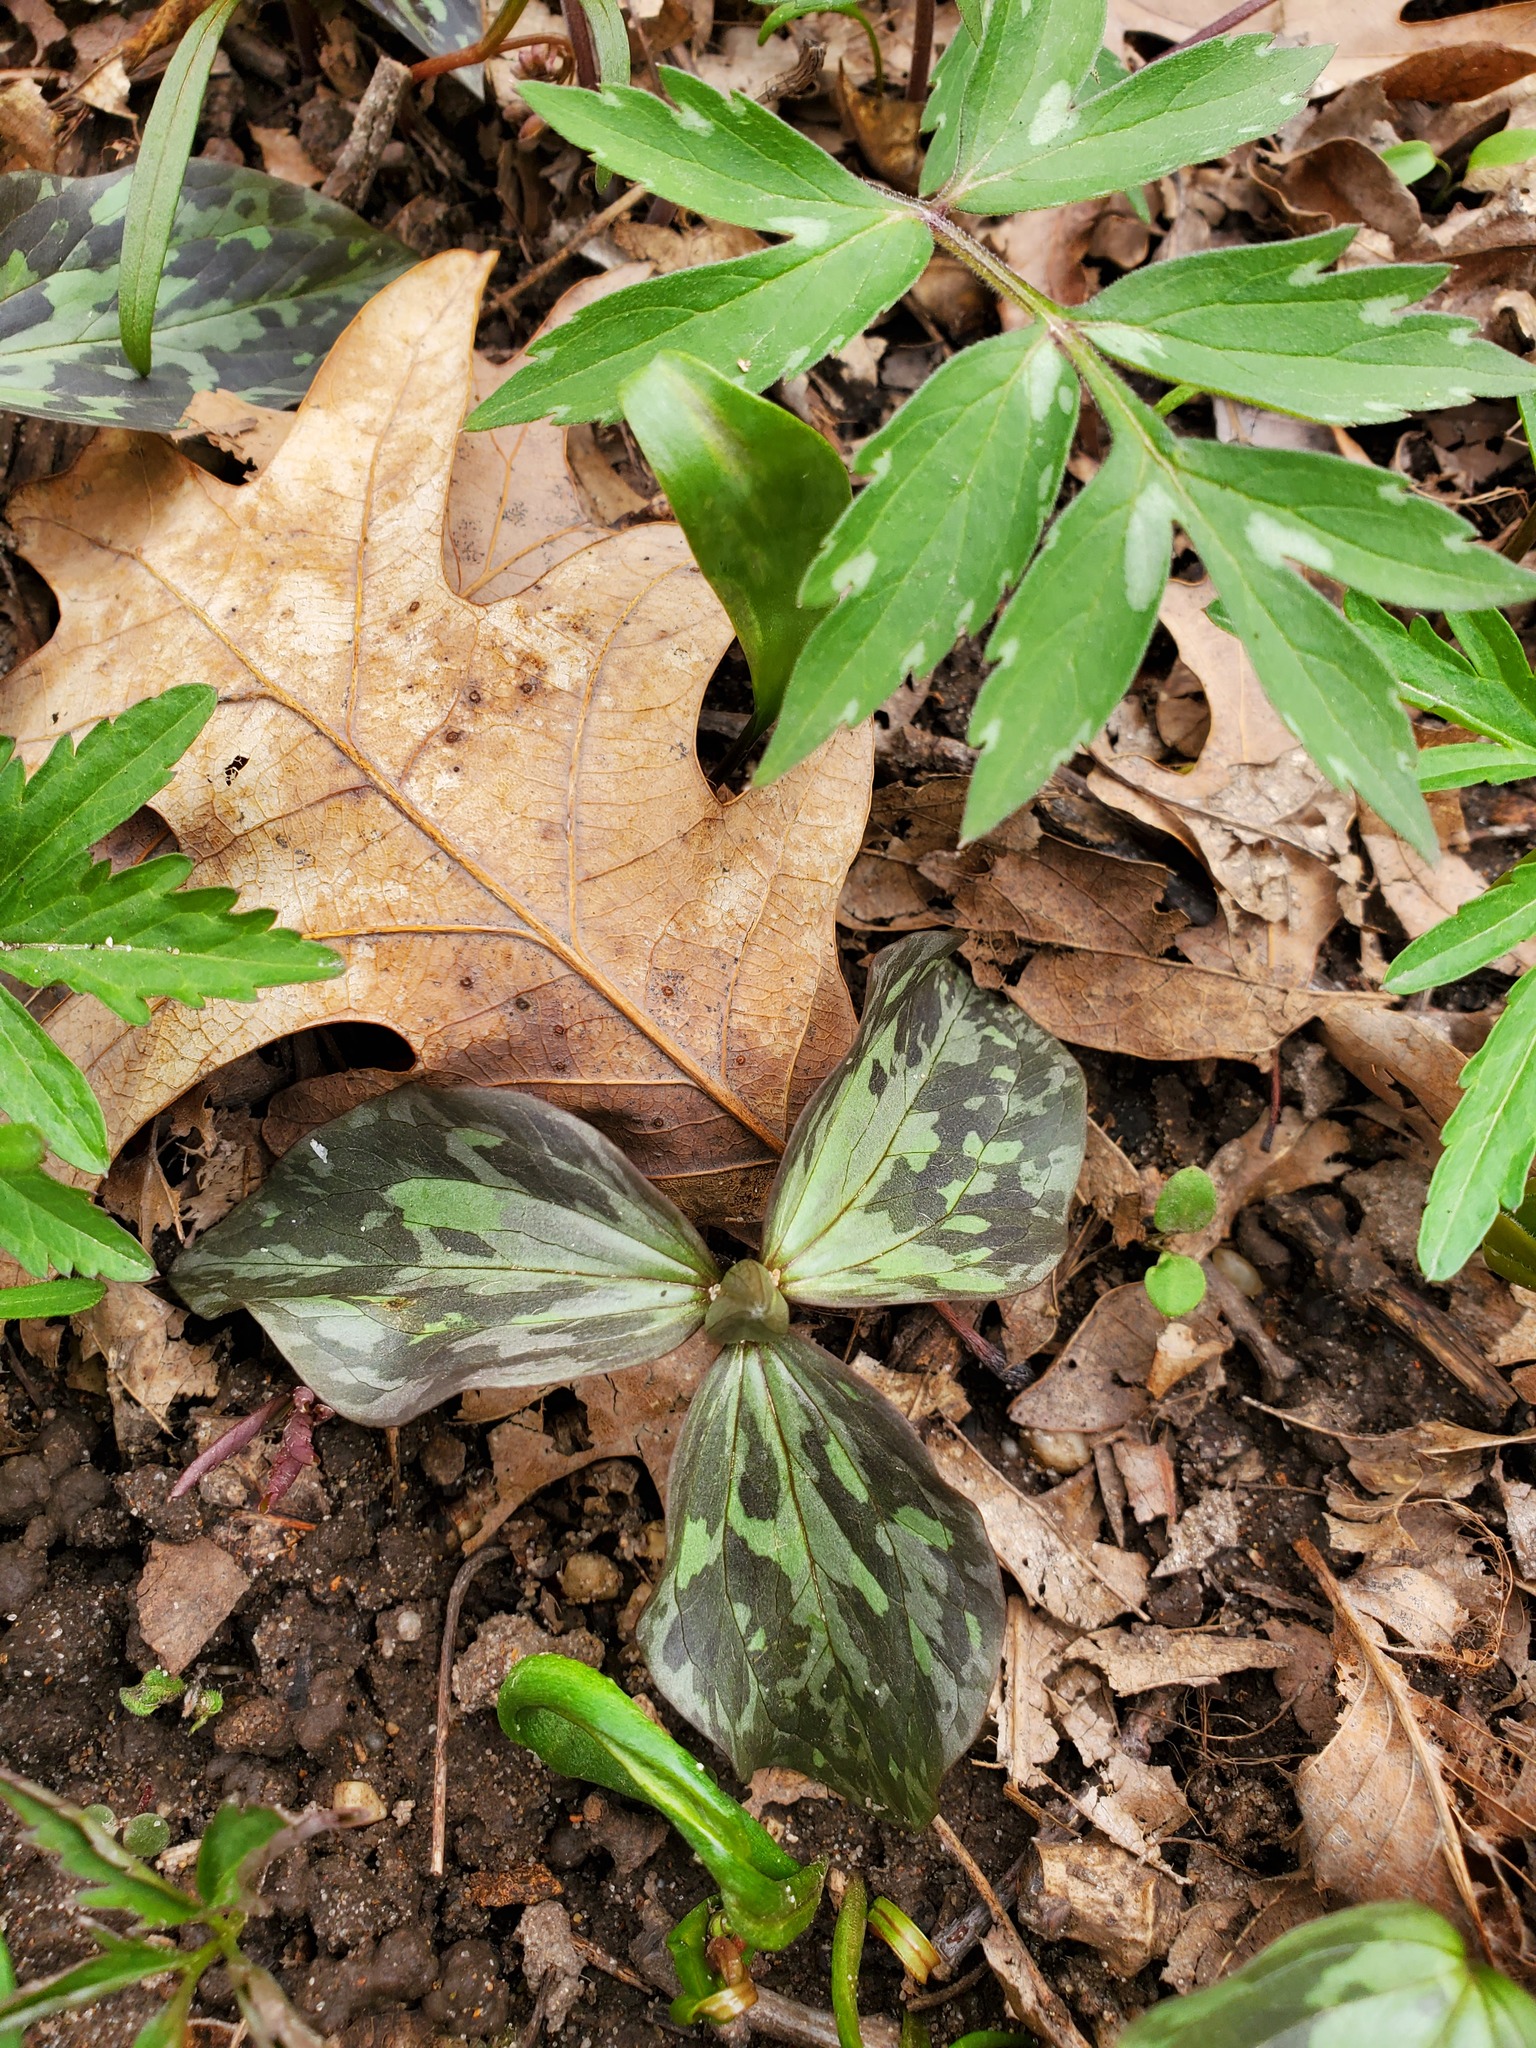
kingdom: Plantae
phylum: Tracheophyta
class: Magnoliopsida
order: Boraginales
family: Hydrophyllaceae
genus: Hydrophyllum
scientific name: Hydrophyllum virginianum
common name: Virginia waterleaf
